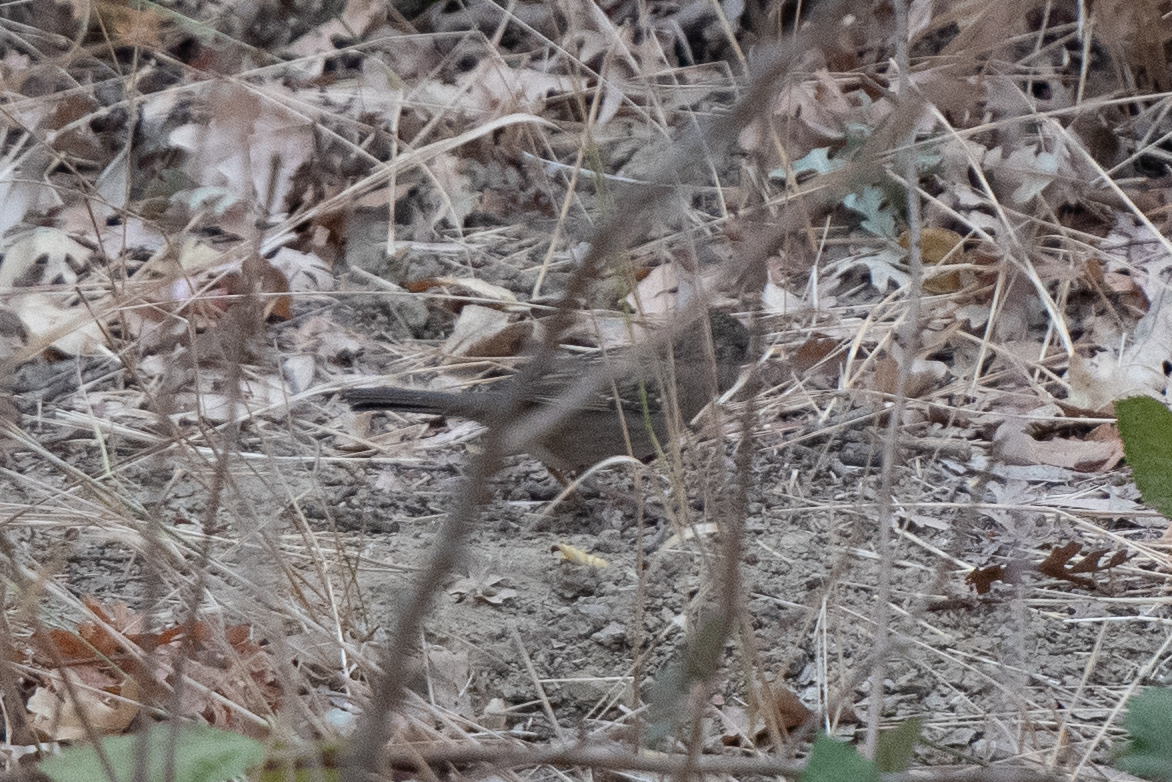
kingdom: Animalia
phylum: Chordata
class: Aves
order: Passeriformes
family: Passerellidae
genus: Melozone
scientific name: Melozone crissalis
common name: California towhee
